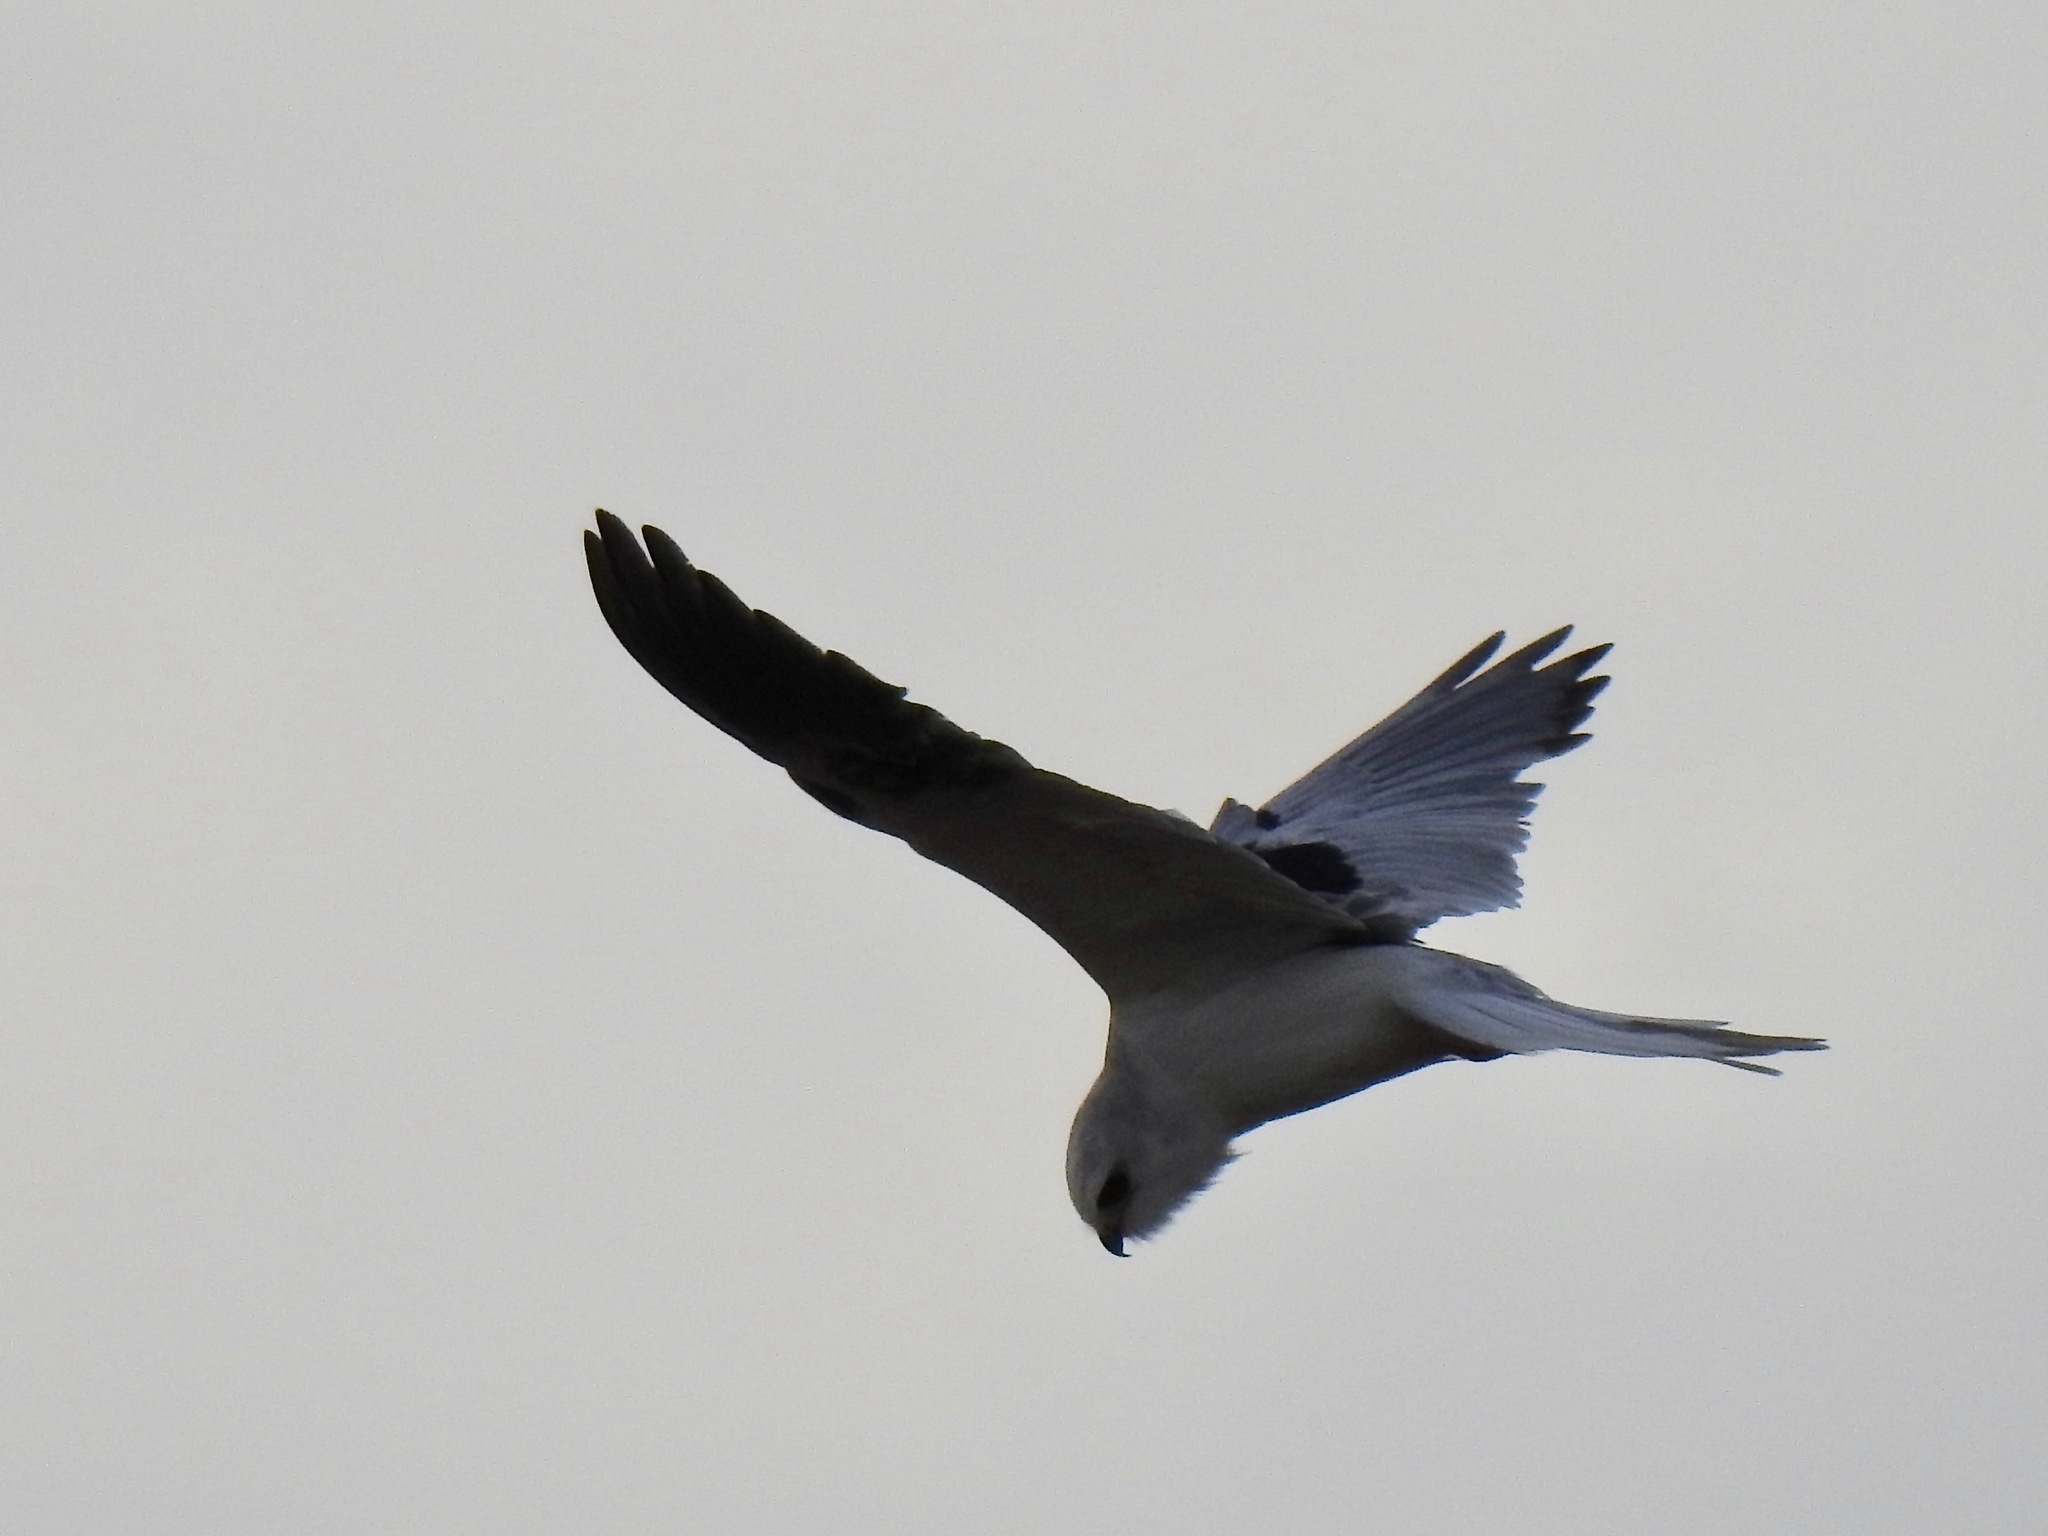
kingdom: Animalia
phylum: Chordata
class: Aves
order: Accipitriformes
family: Accipitridae
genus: Elanus
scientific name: Elanus leucurus
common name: White-tailed kite
